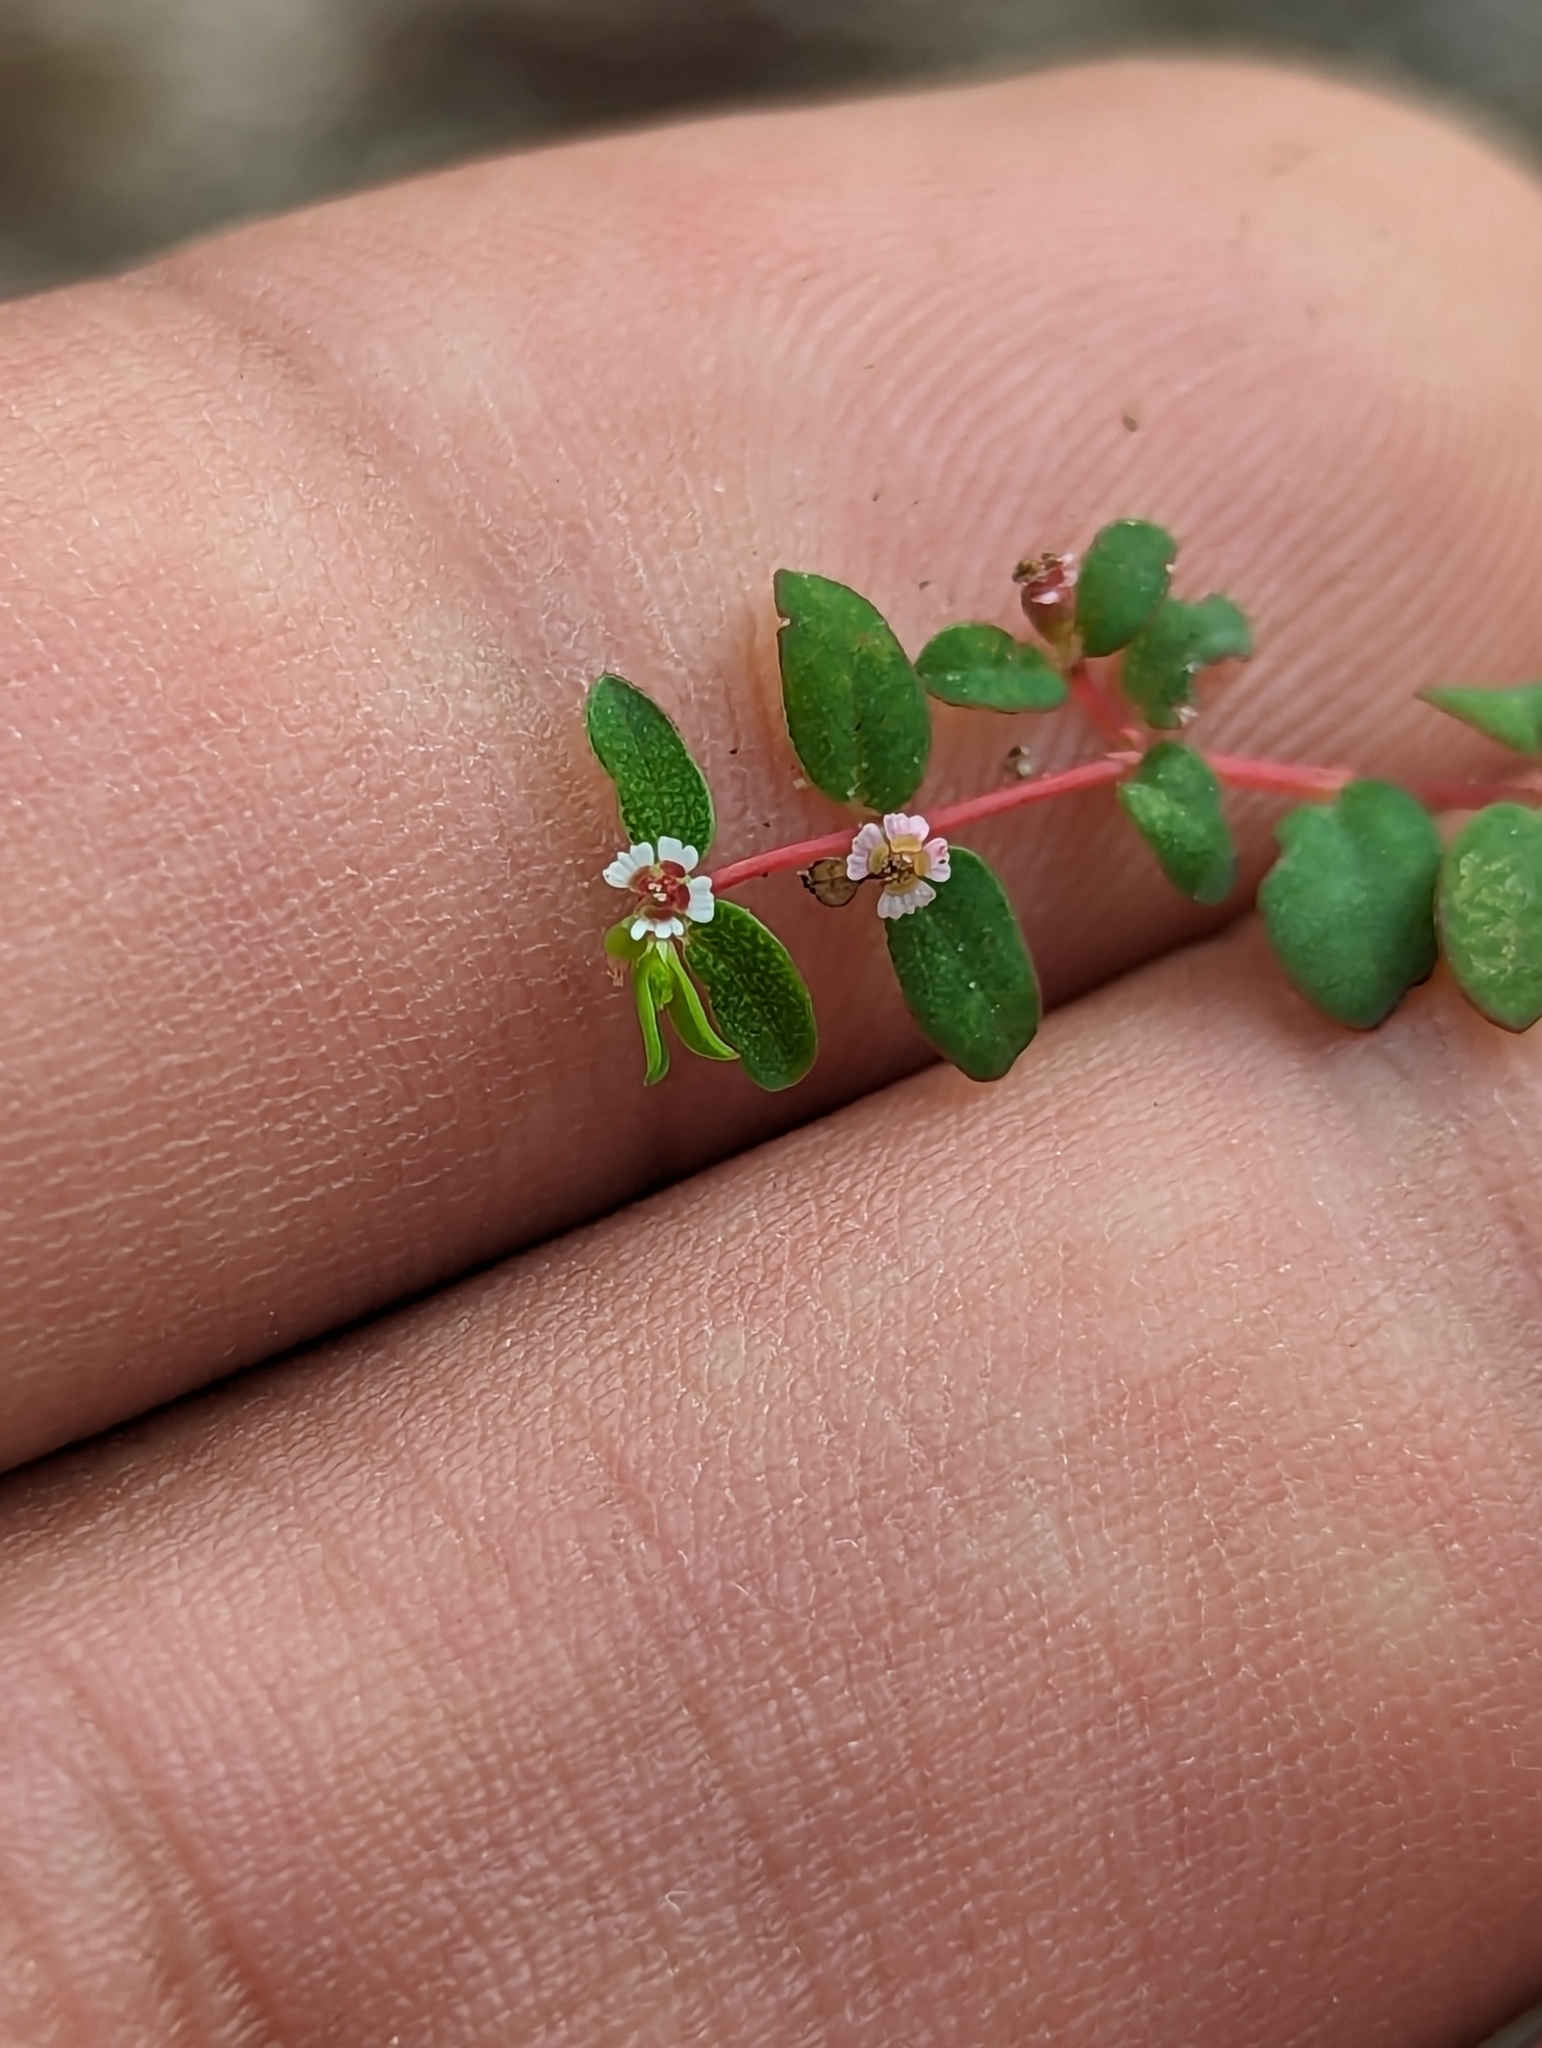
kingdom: Plantae
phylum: Tracheophyta
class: Magnoliopsida
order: Malpighiales
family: Euphorbiaceae
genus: Euphorbia
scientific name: Euphorbia polycarpa
